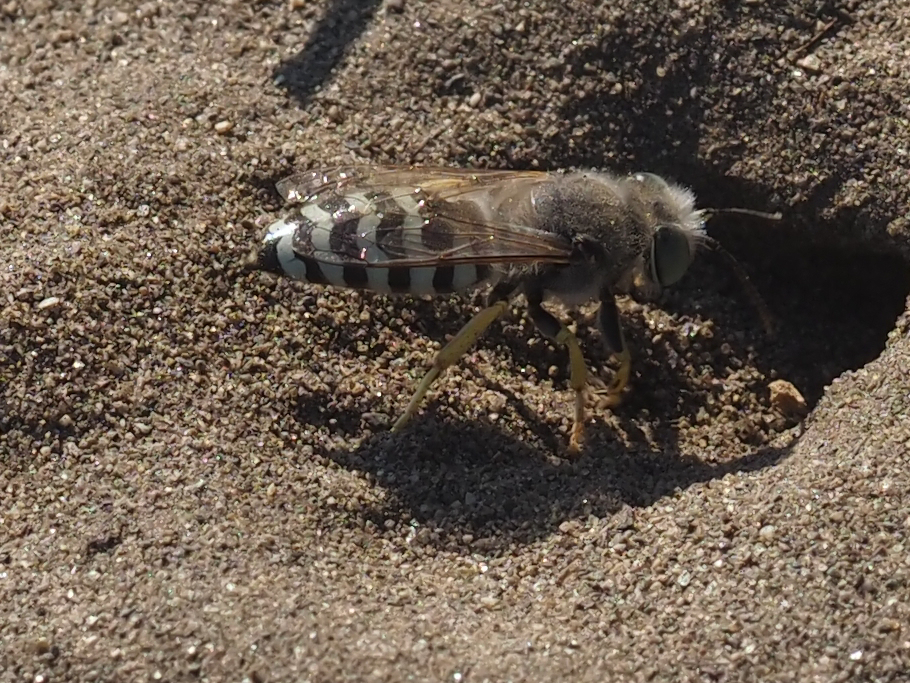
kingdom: Animalia
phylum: Arthropoda
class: Insecta
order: Hymenoptera
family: Crabronidae
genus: Bembix
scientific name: Bembix americana
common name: American sand wasp
